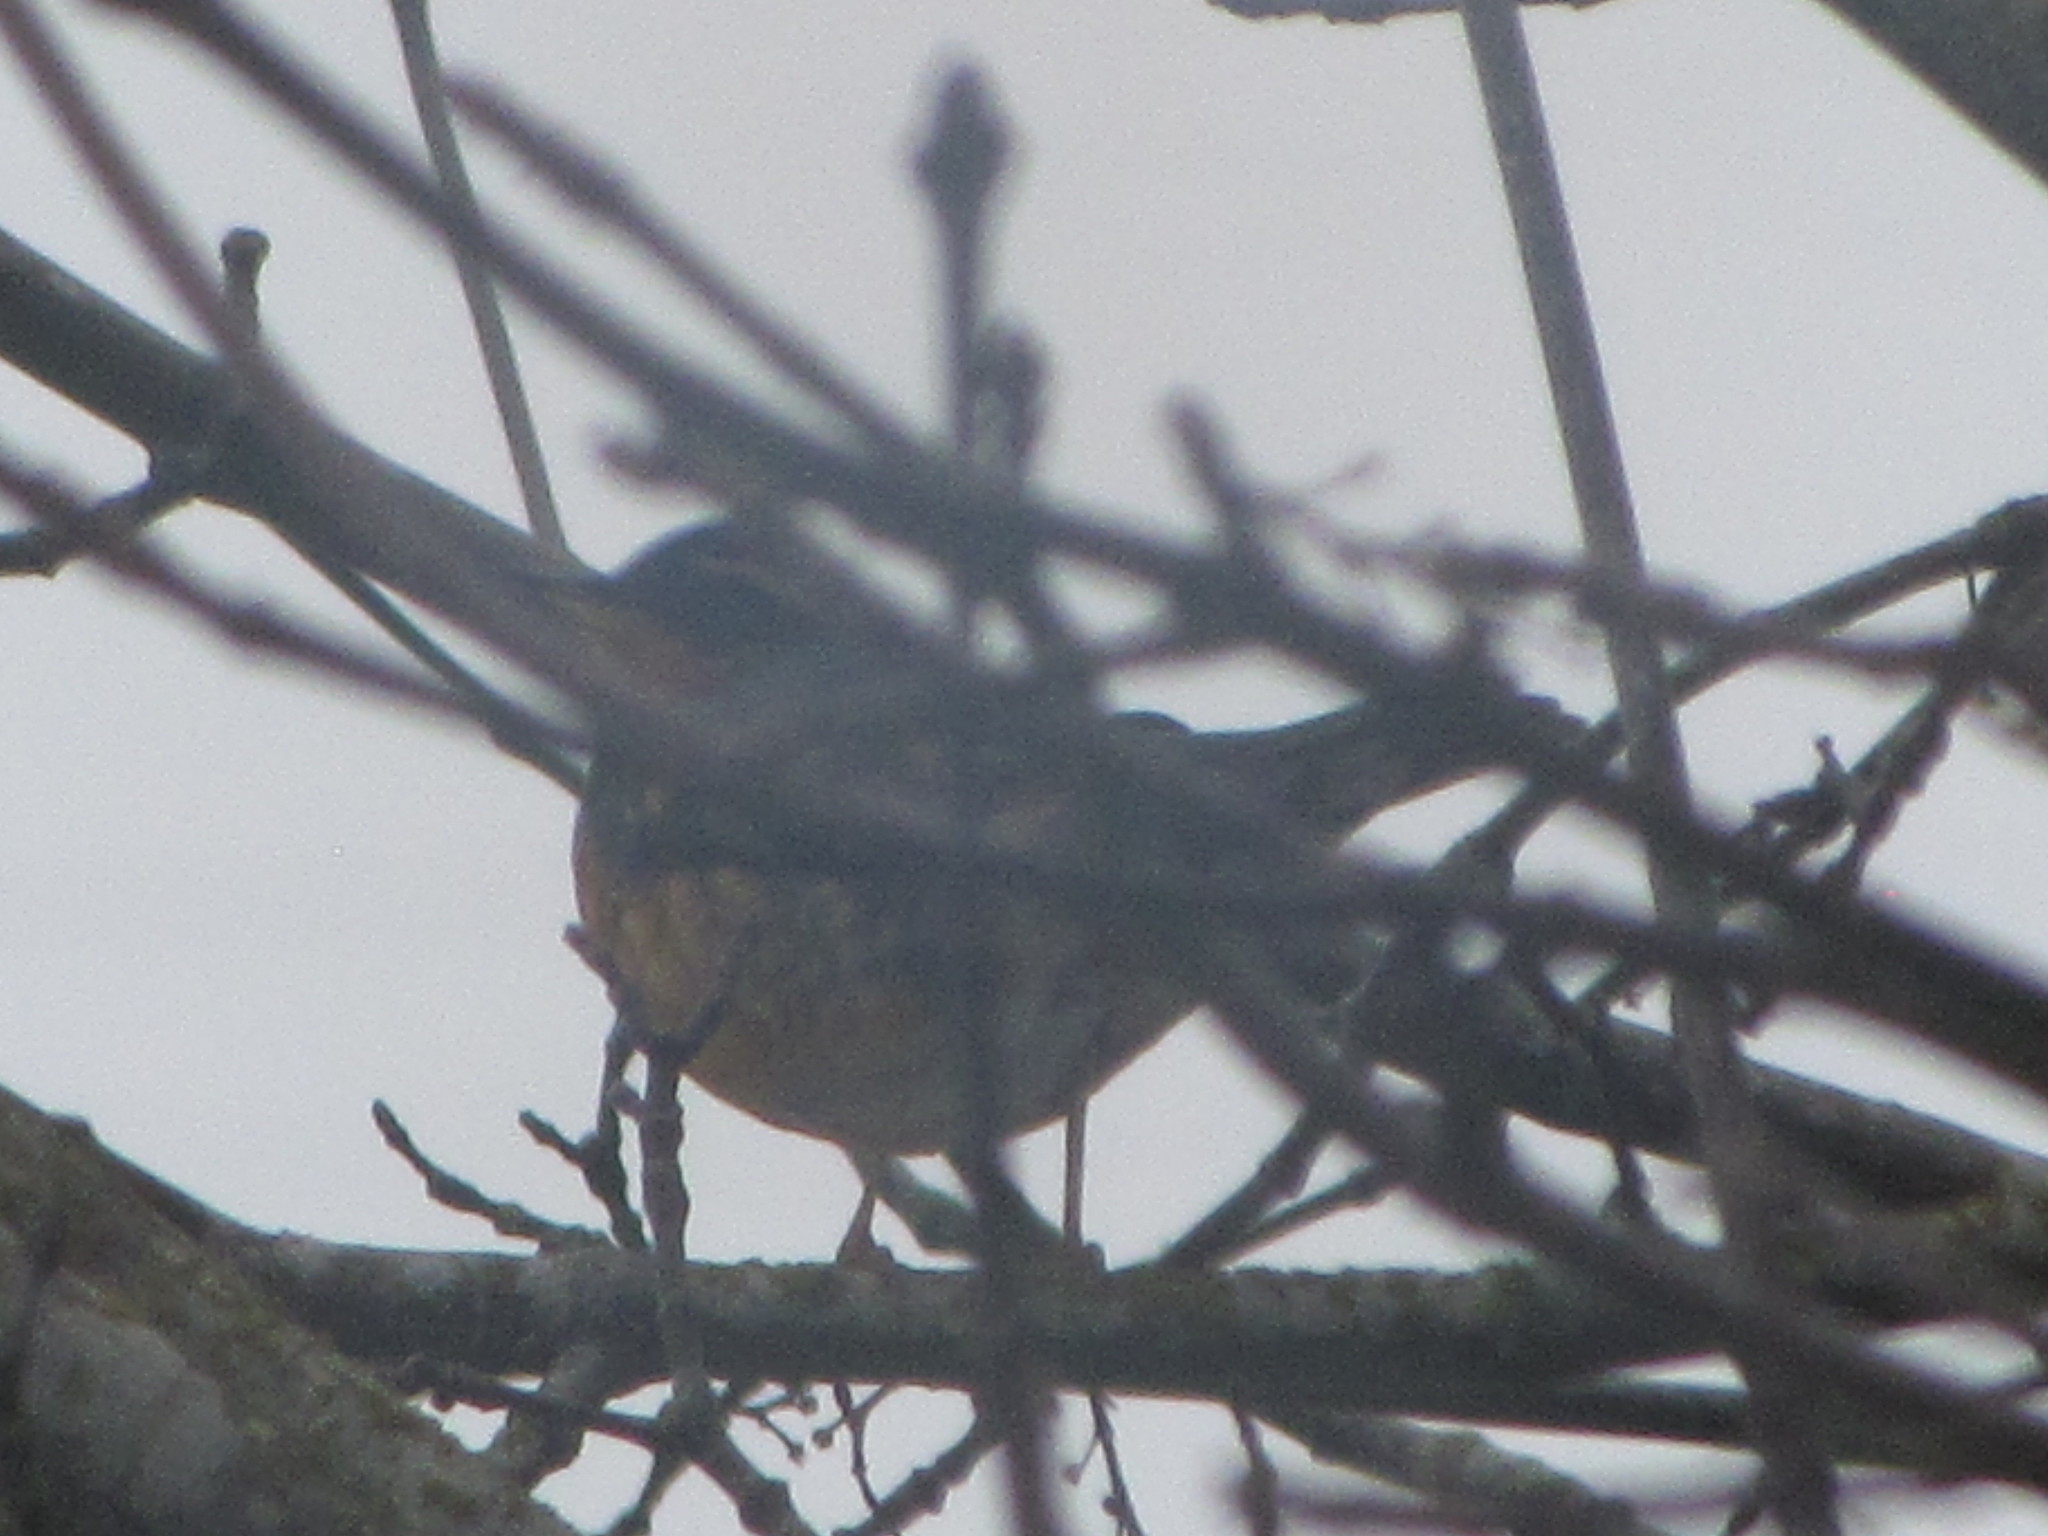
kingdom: Animalia
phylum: Chordata
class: Aves
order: Passeriformes
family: Turdidae
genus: Ixoreus
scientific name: Ixoreus naevius
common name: Varied thrush
